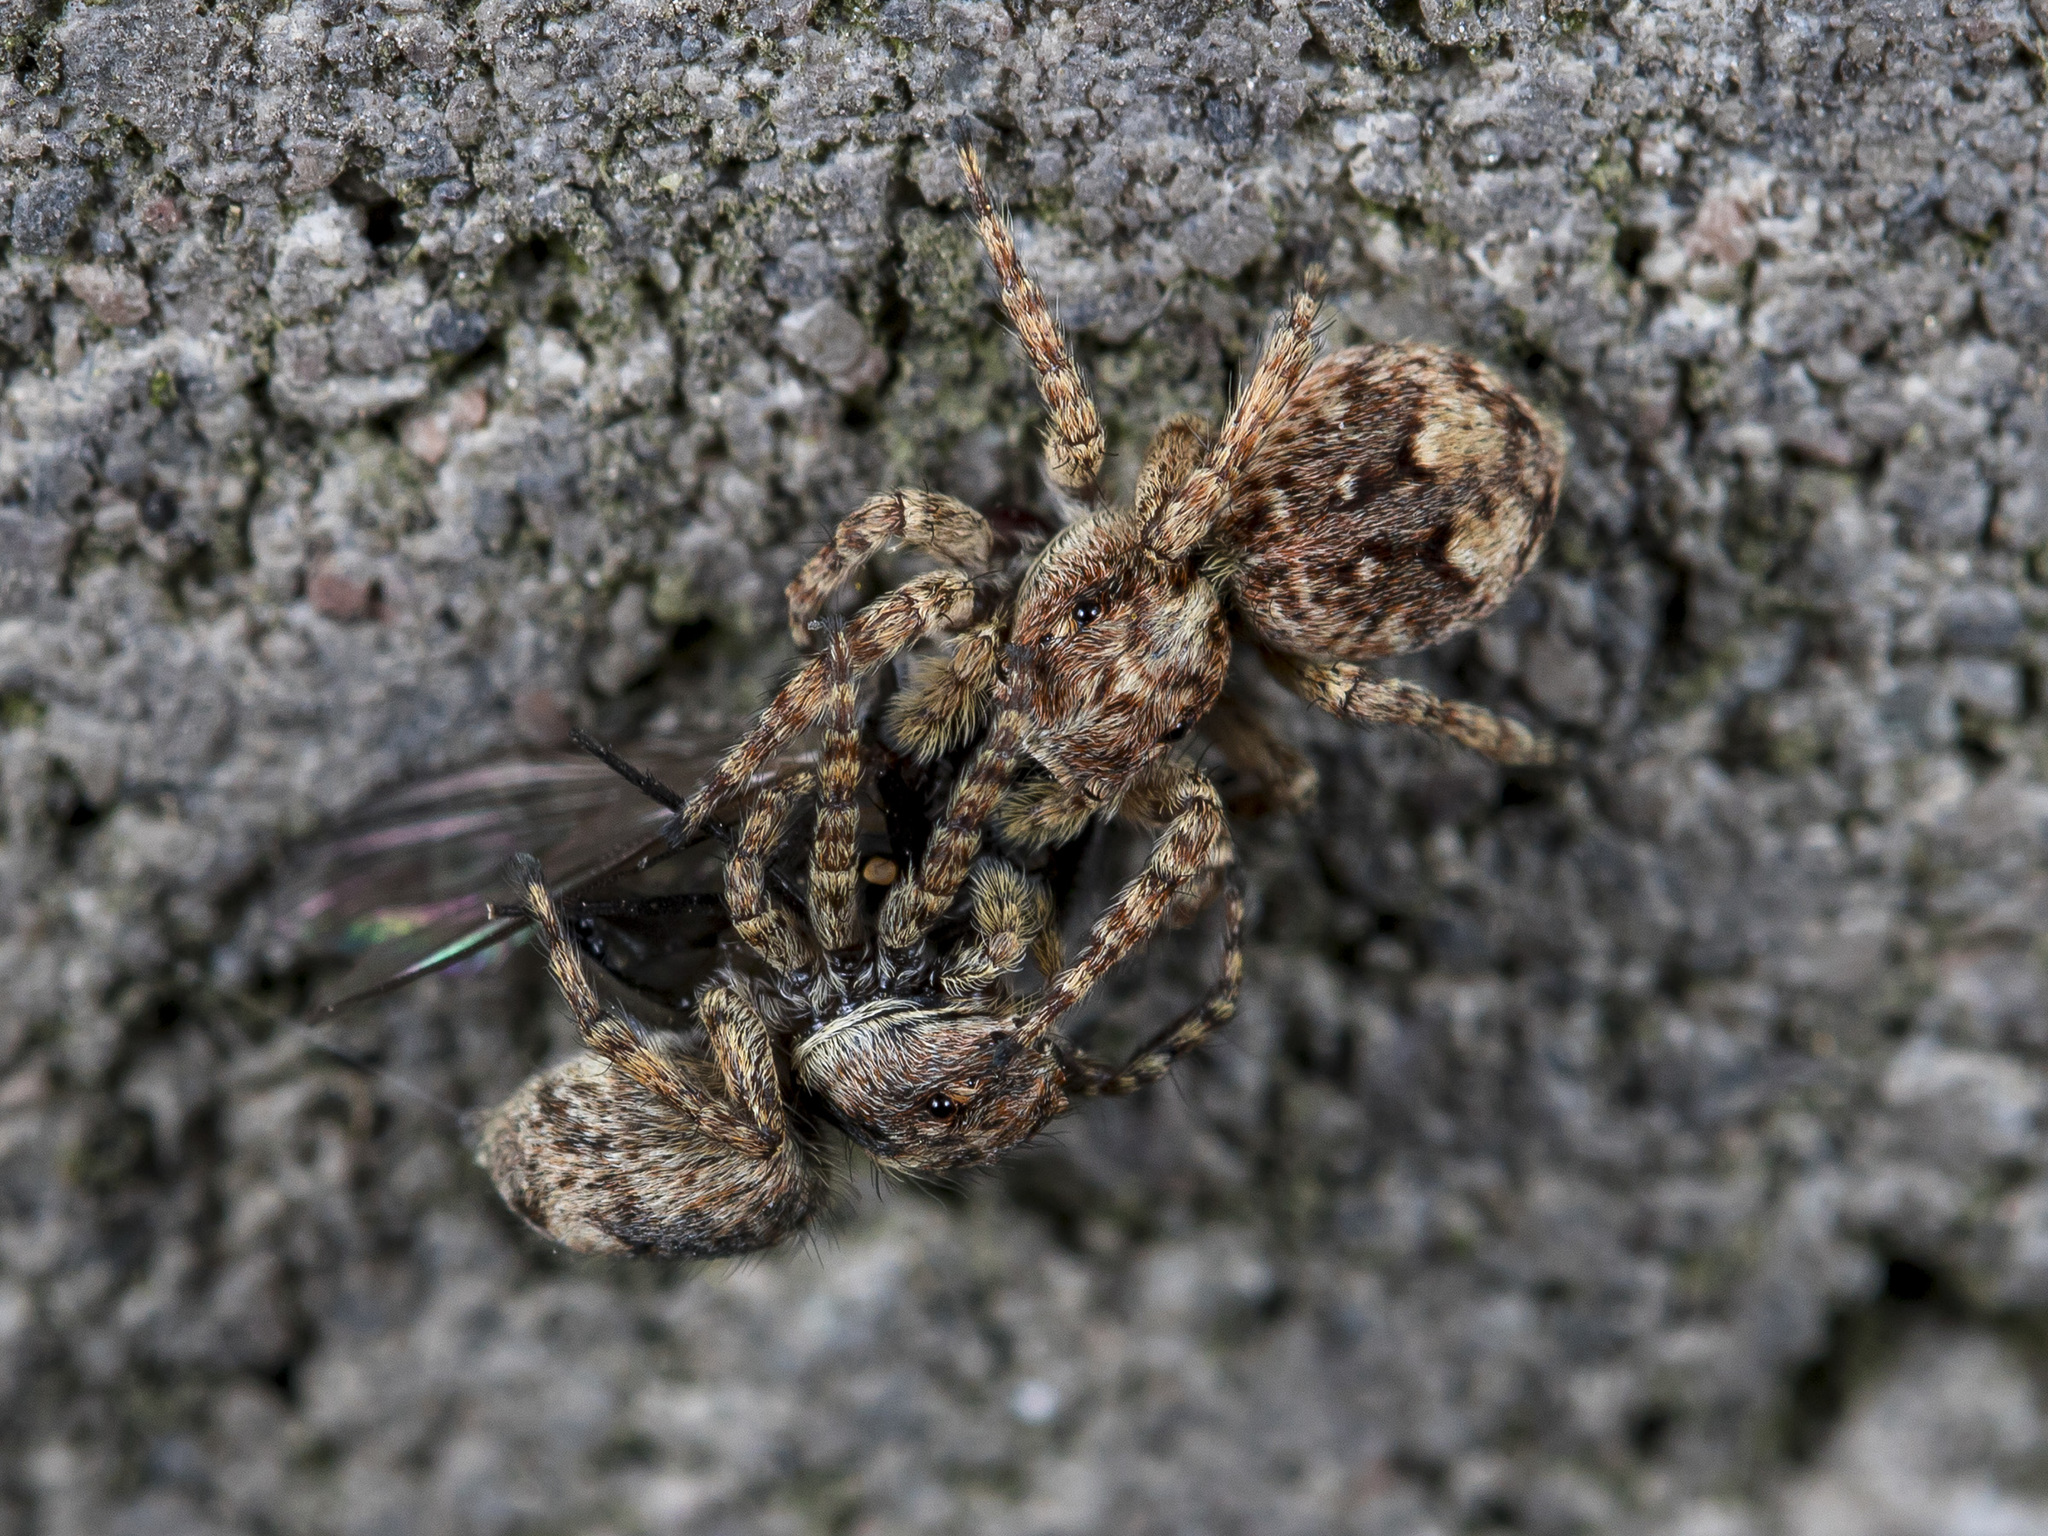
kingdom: Animalia
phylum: Arthropoda
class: Arachnida
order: Araneae
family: Salticidae
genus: Attulus
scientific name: Attulus fasciger
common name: Asiatic wall jumping spider
